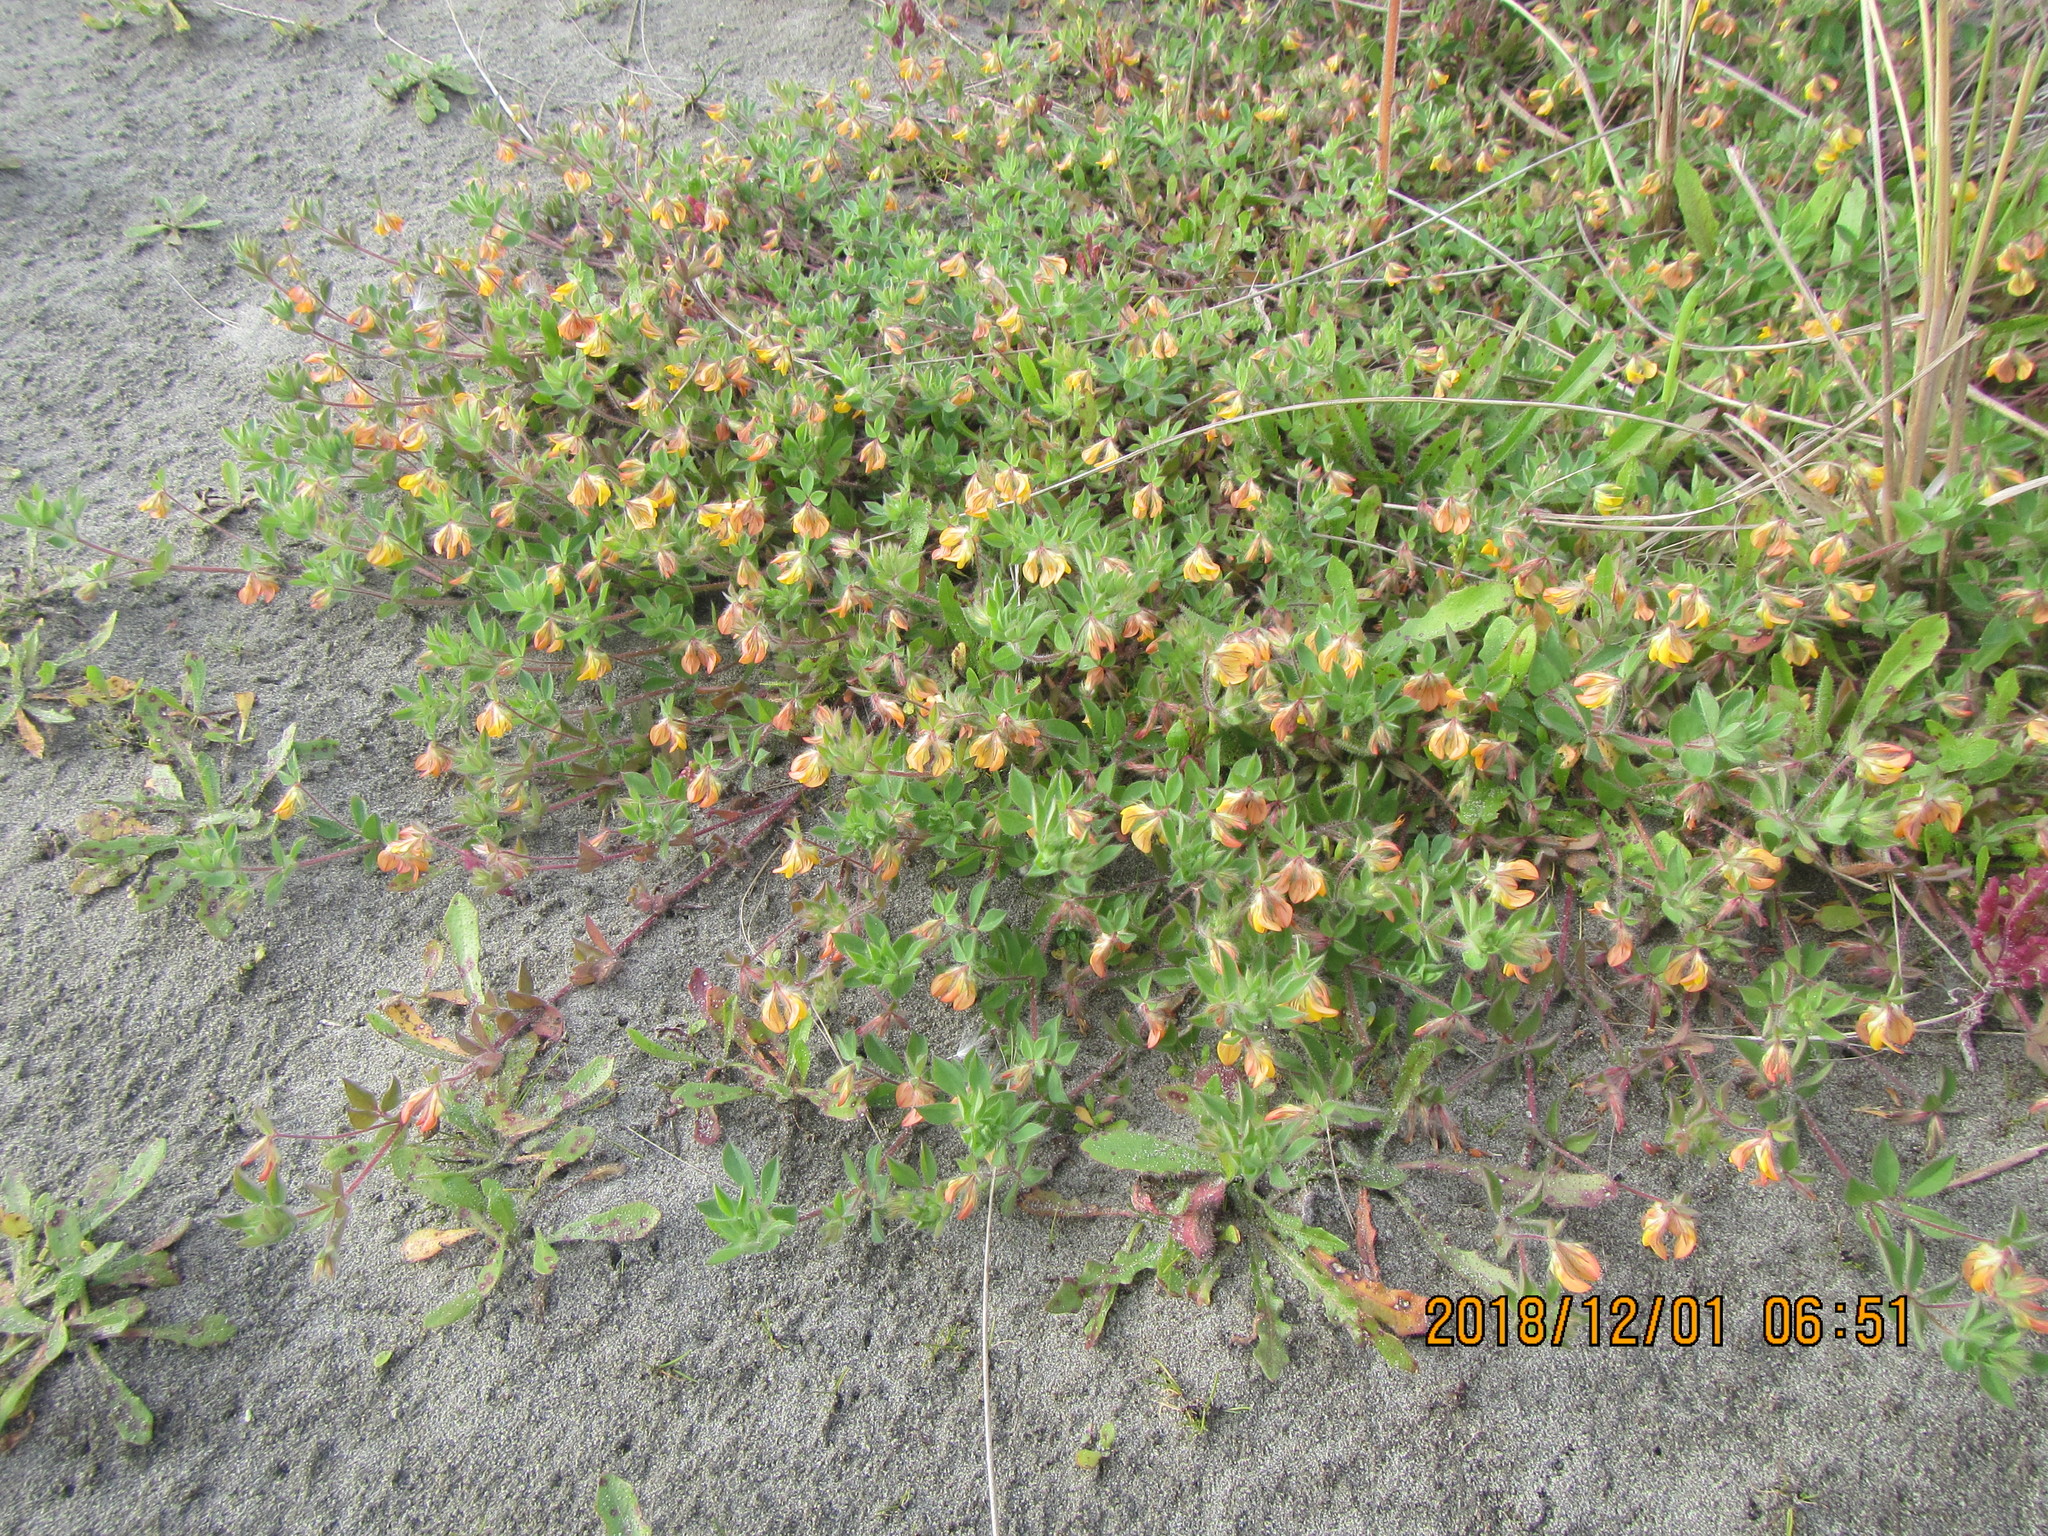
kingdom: Plantae
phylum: Tracheophyta
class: Magnoliopsida
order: Fabales
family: Fabaceae
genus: Lotus
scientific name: Lotus subbiflorus
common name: Hairy bird's-foot trefoil
